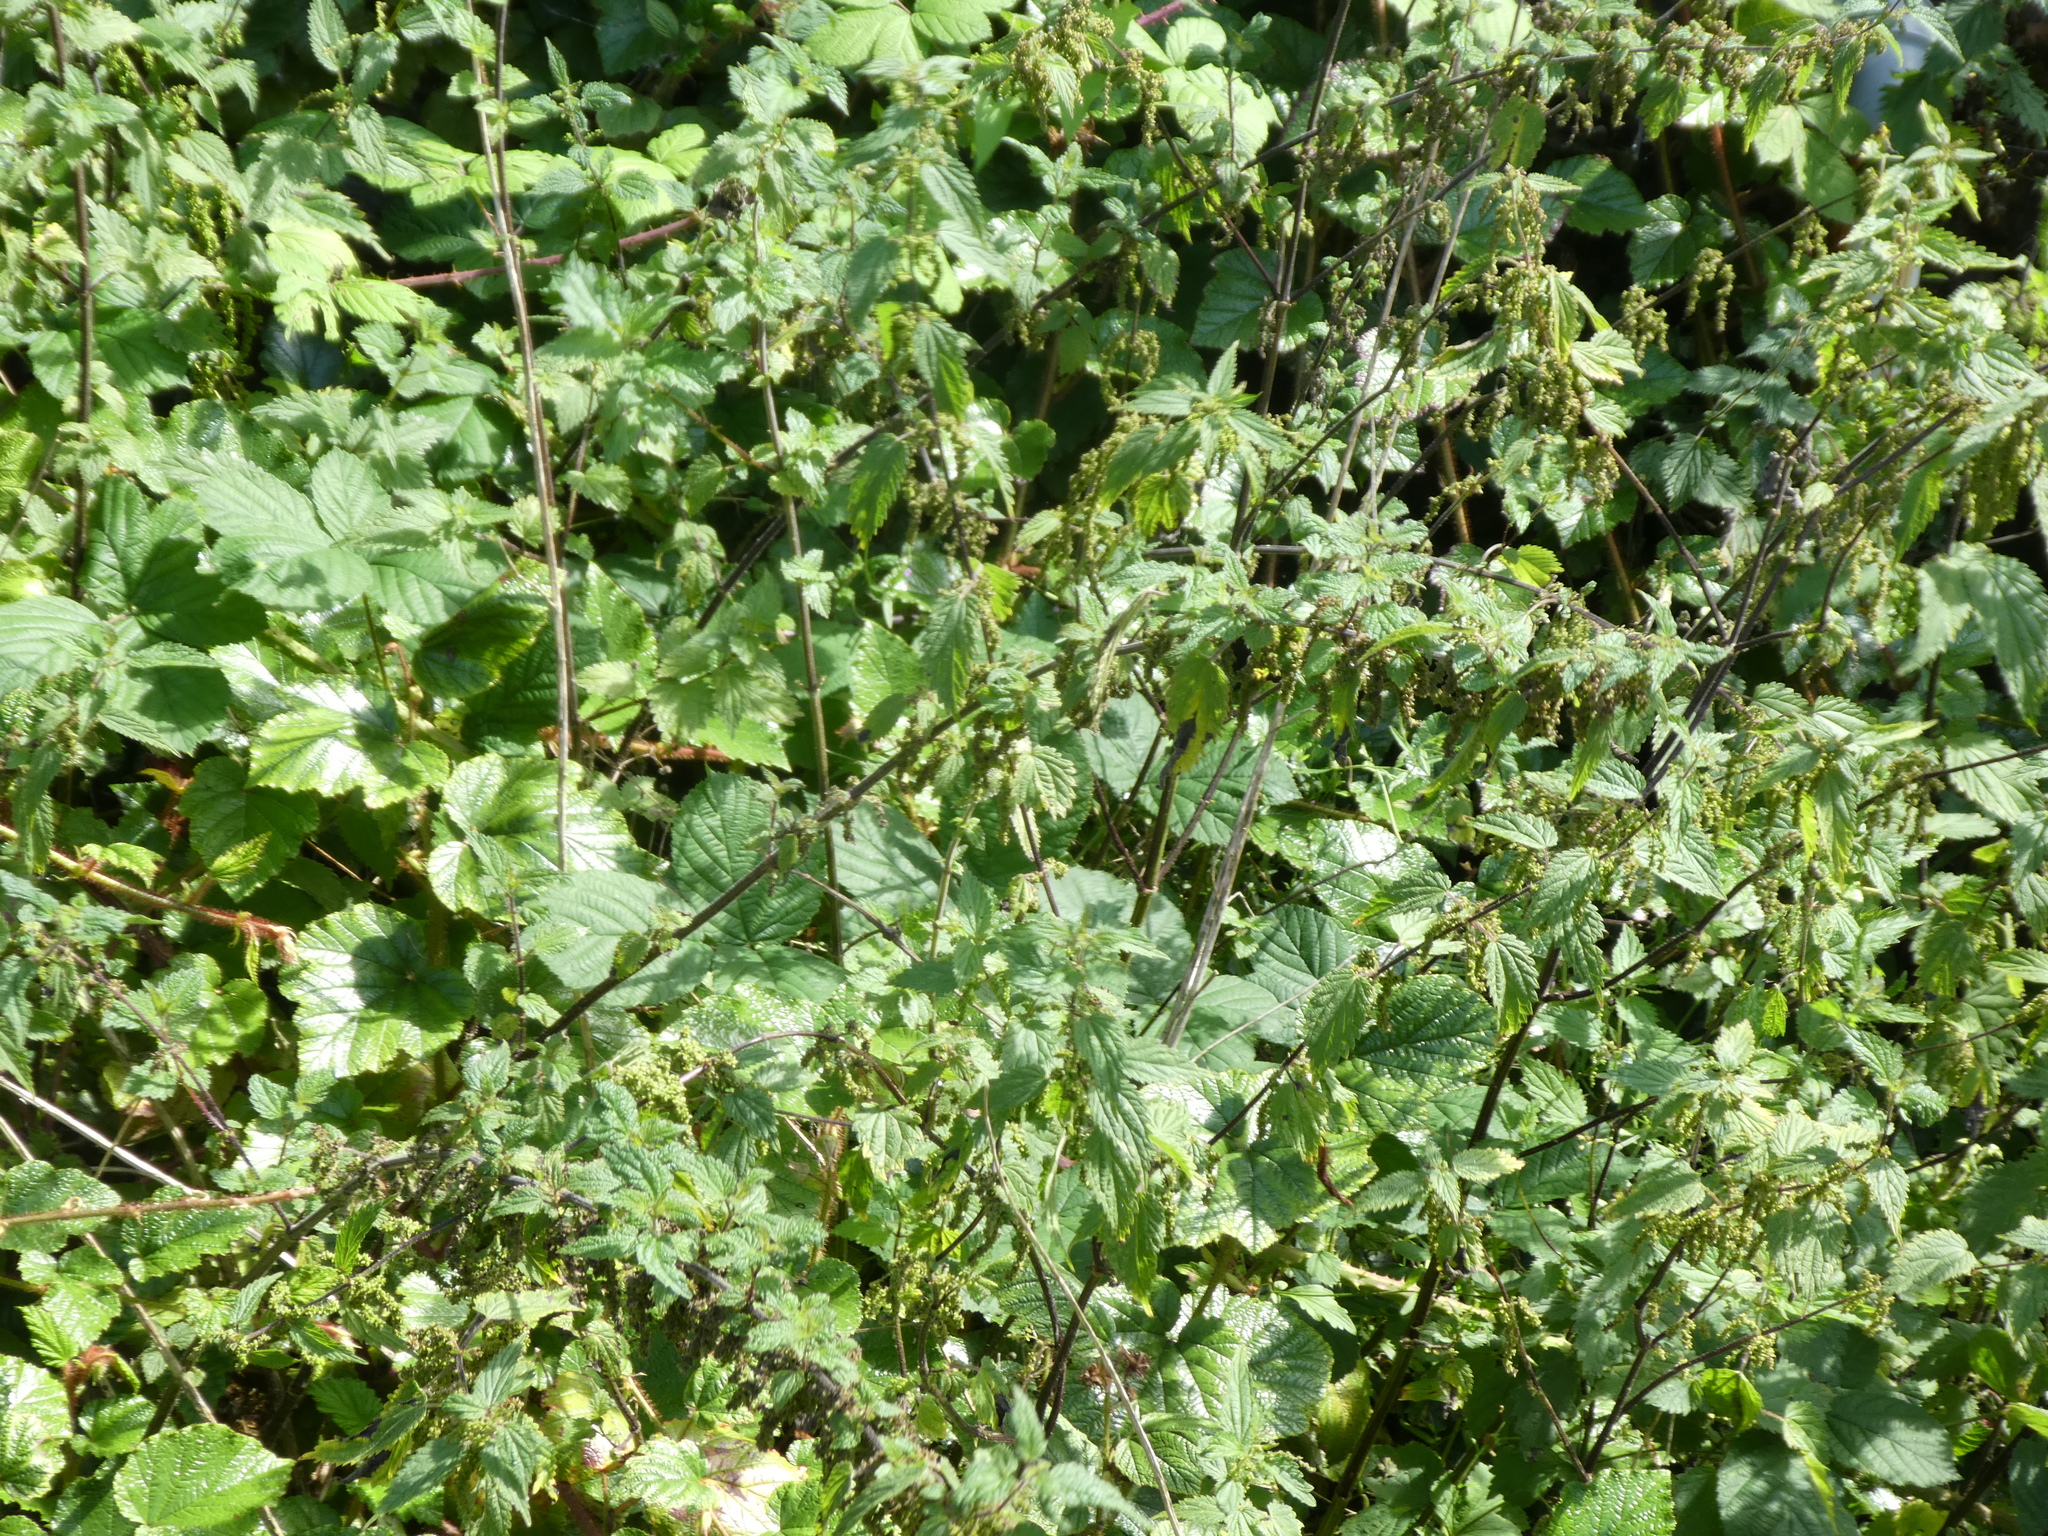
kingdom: Plantae
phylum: Tracheophyta
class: Magnoliopsida
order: Rosales
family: Urticaceae
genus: Urtica
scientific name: Urtica dioica
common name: Common nettle
